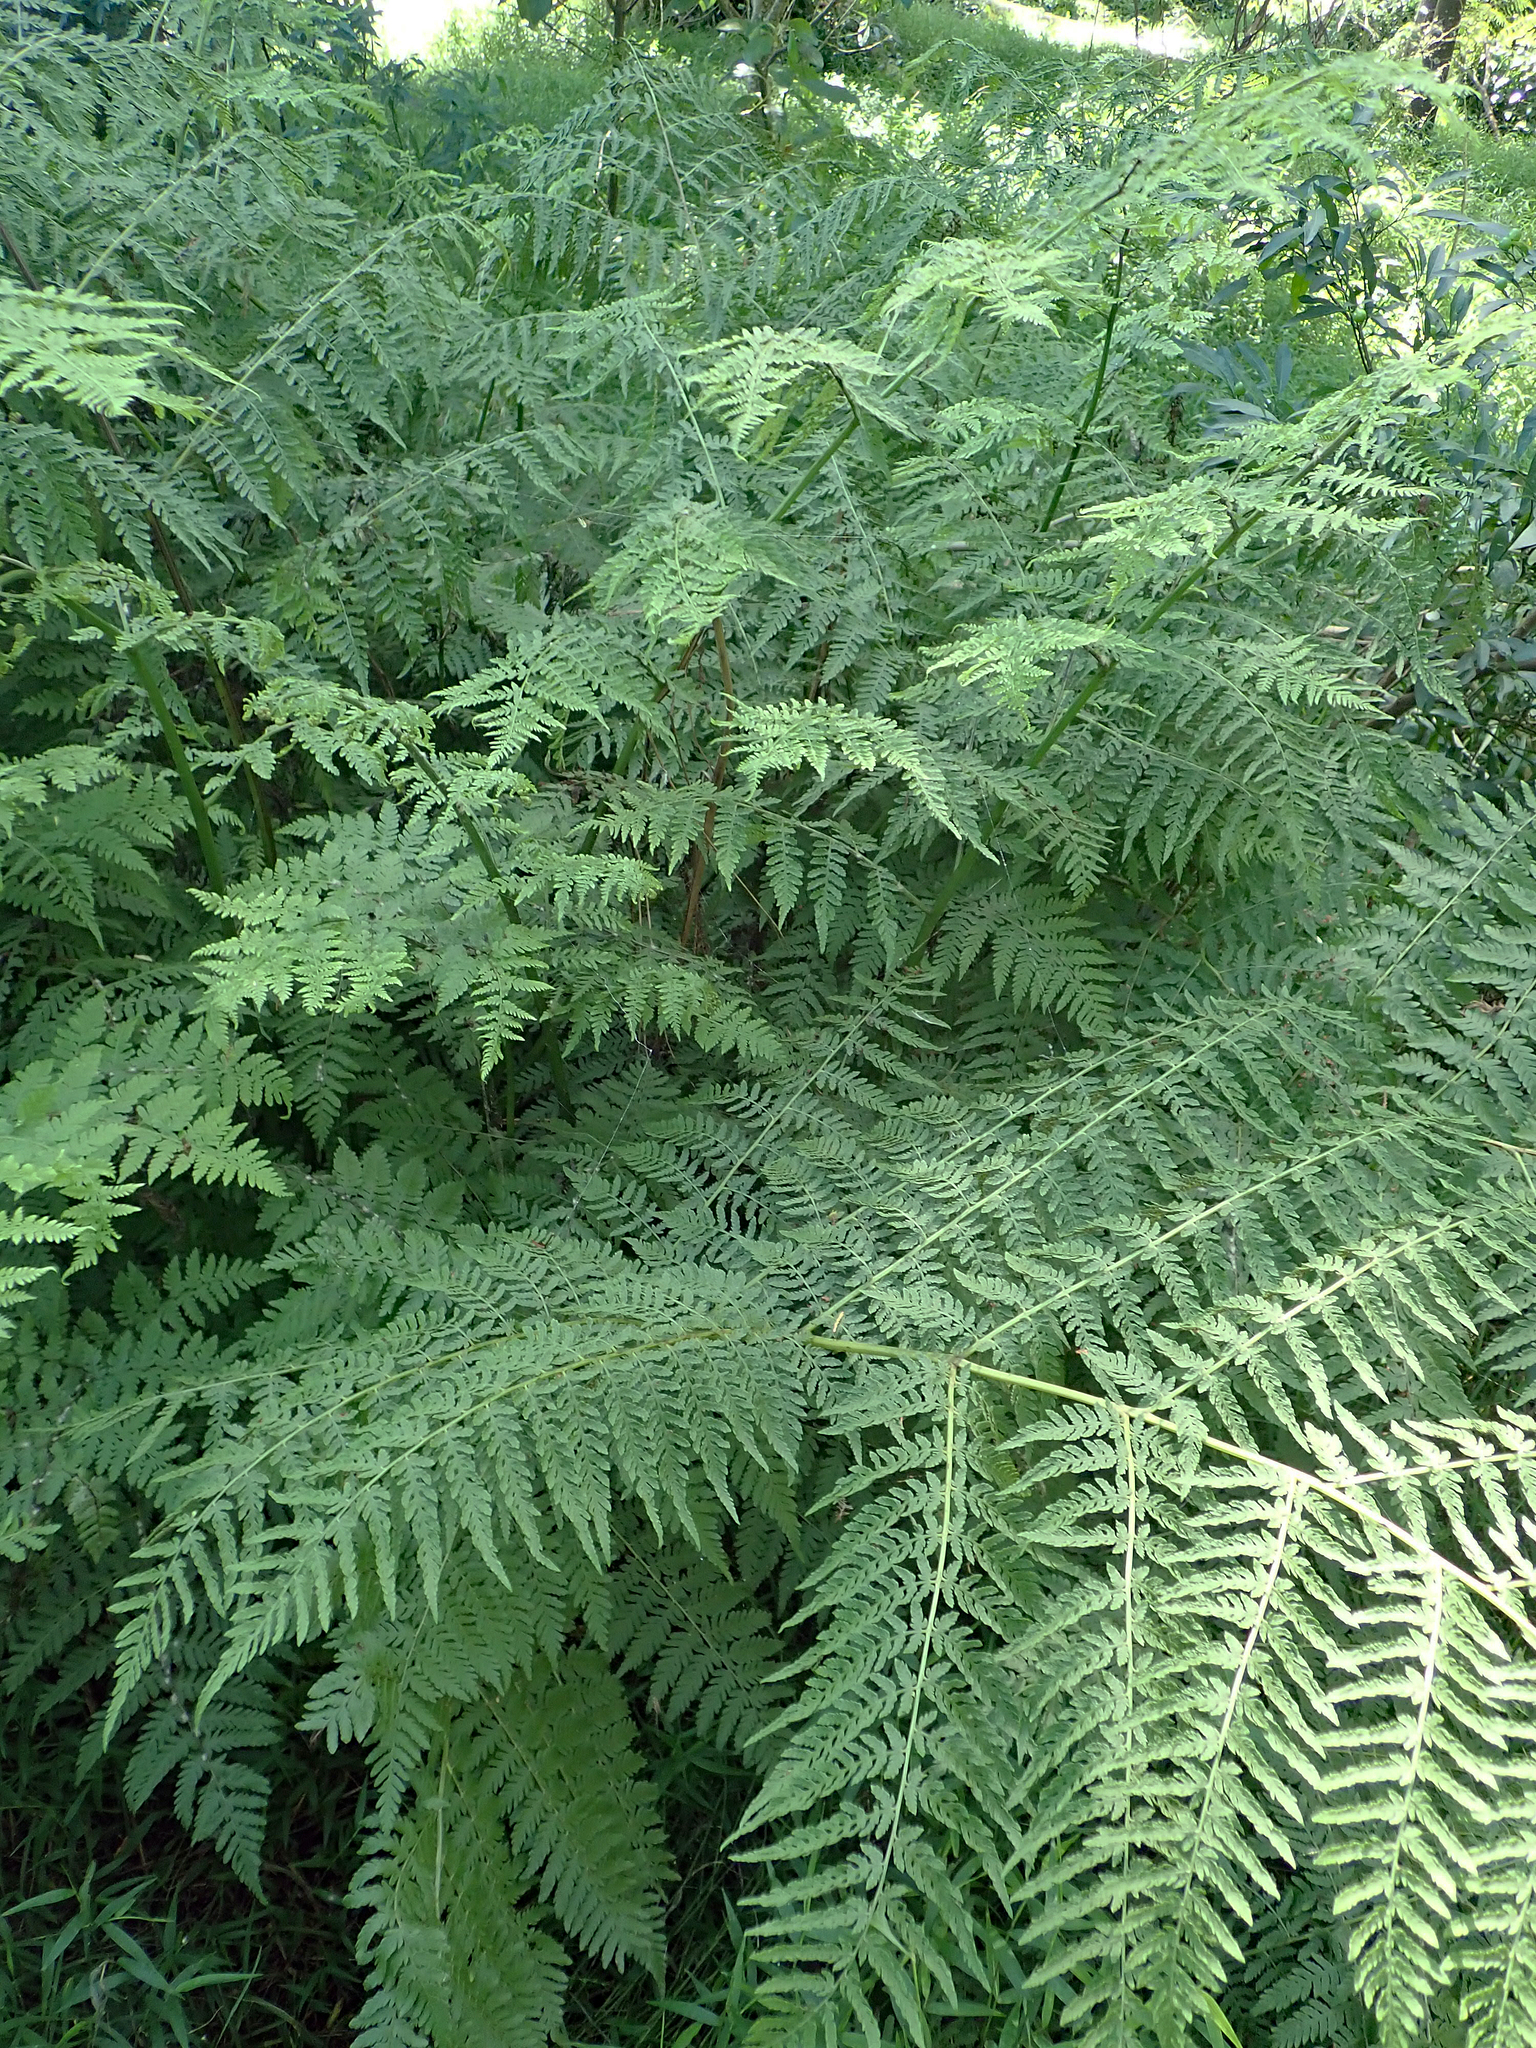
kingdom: Plantae
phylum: Tracheophyta
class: Polypodiopsida
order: Polypodiales
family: Athyriaceae
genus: Diplazium
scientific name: Diplazium australe
